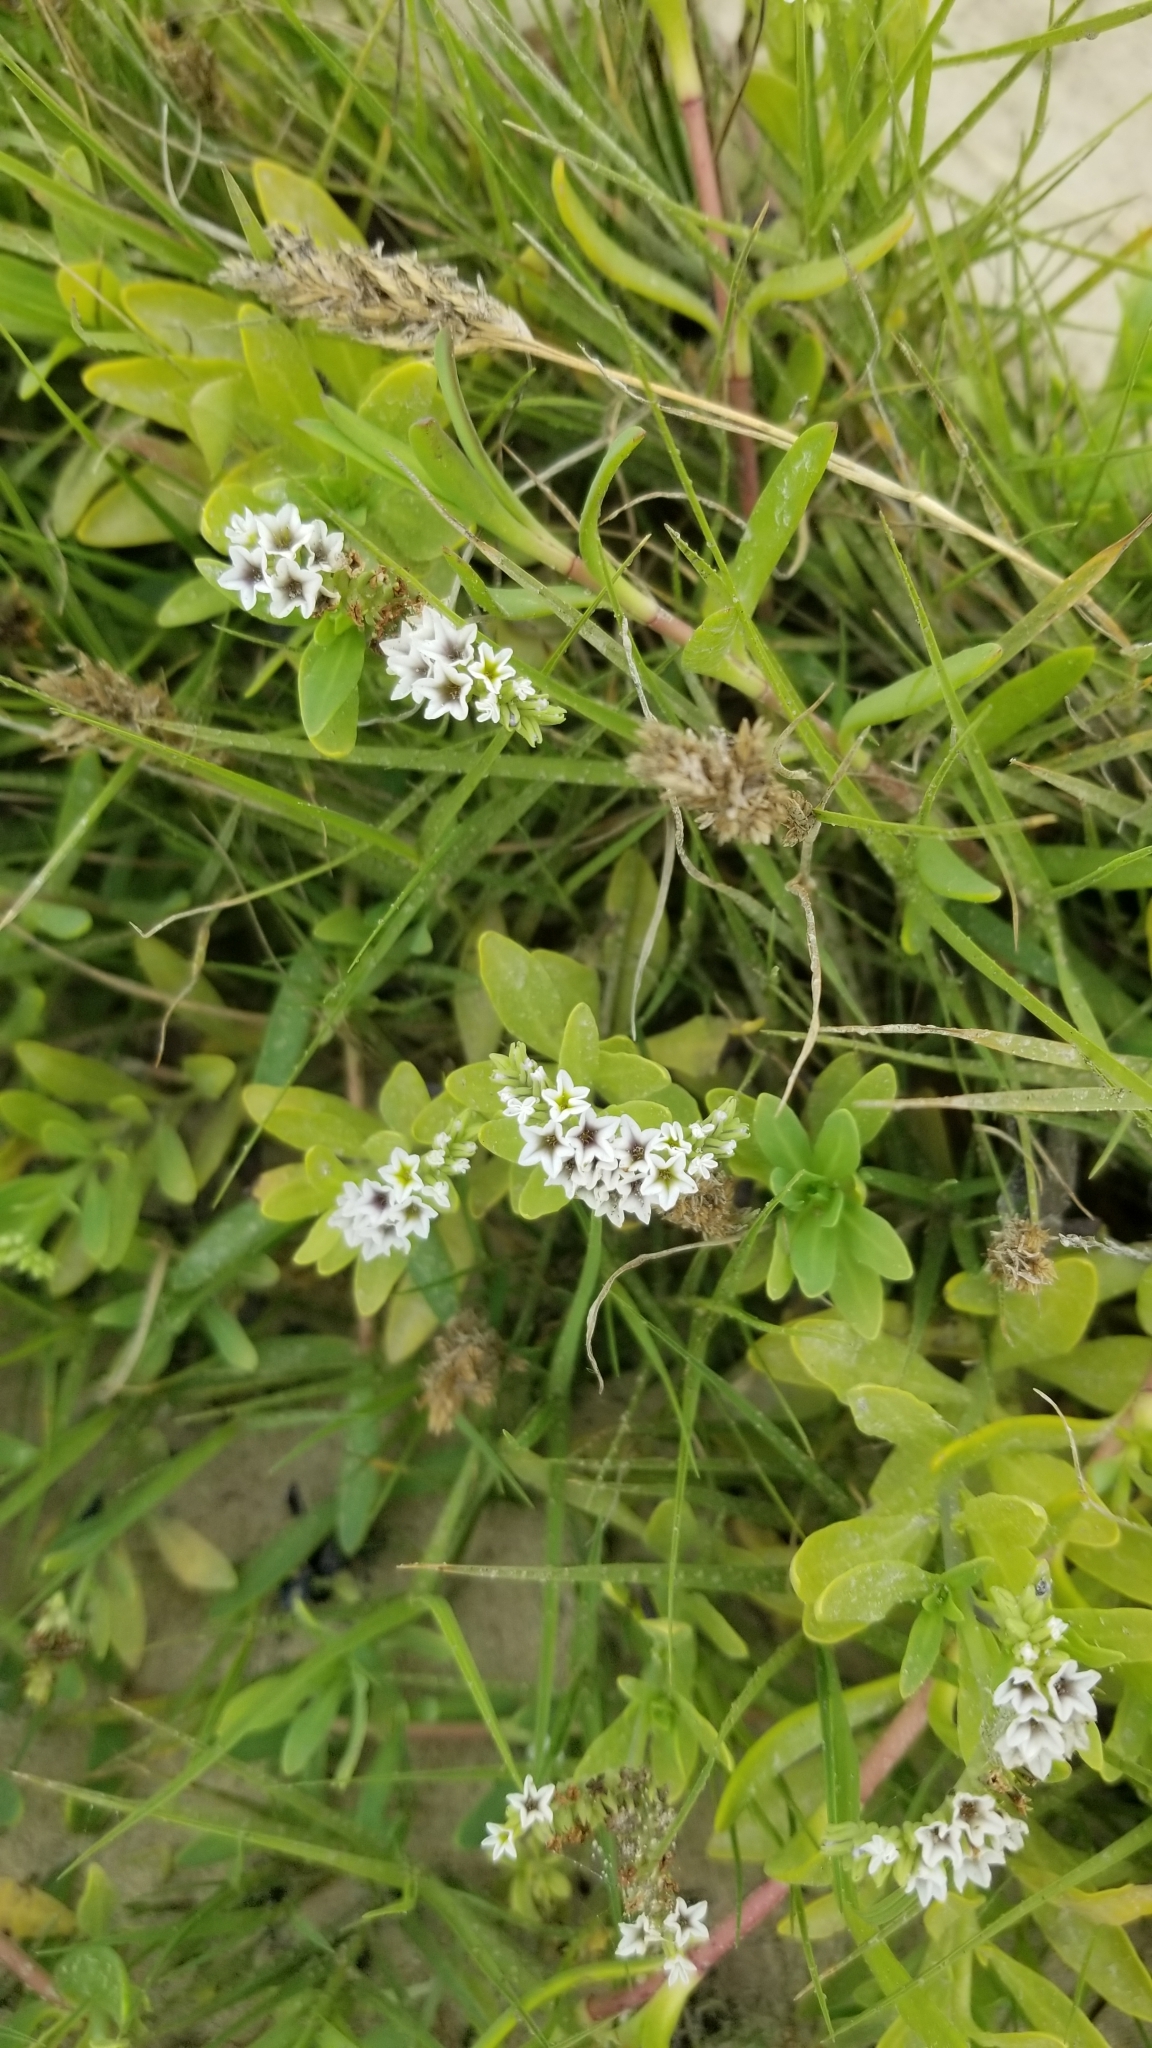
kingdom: Plantae
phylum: Tracheophyta
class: Magnoliopsida
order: Boraginales
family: Heliotropiaceae
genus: Heliotropium
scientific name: Heliotropium curassavicum
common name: Seaside heliotrope
